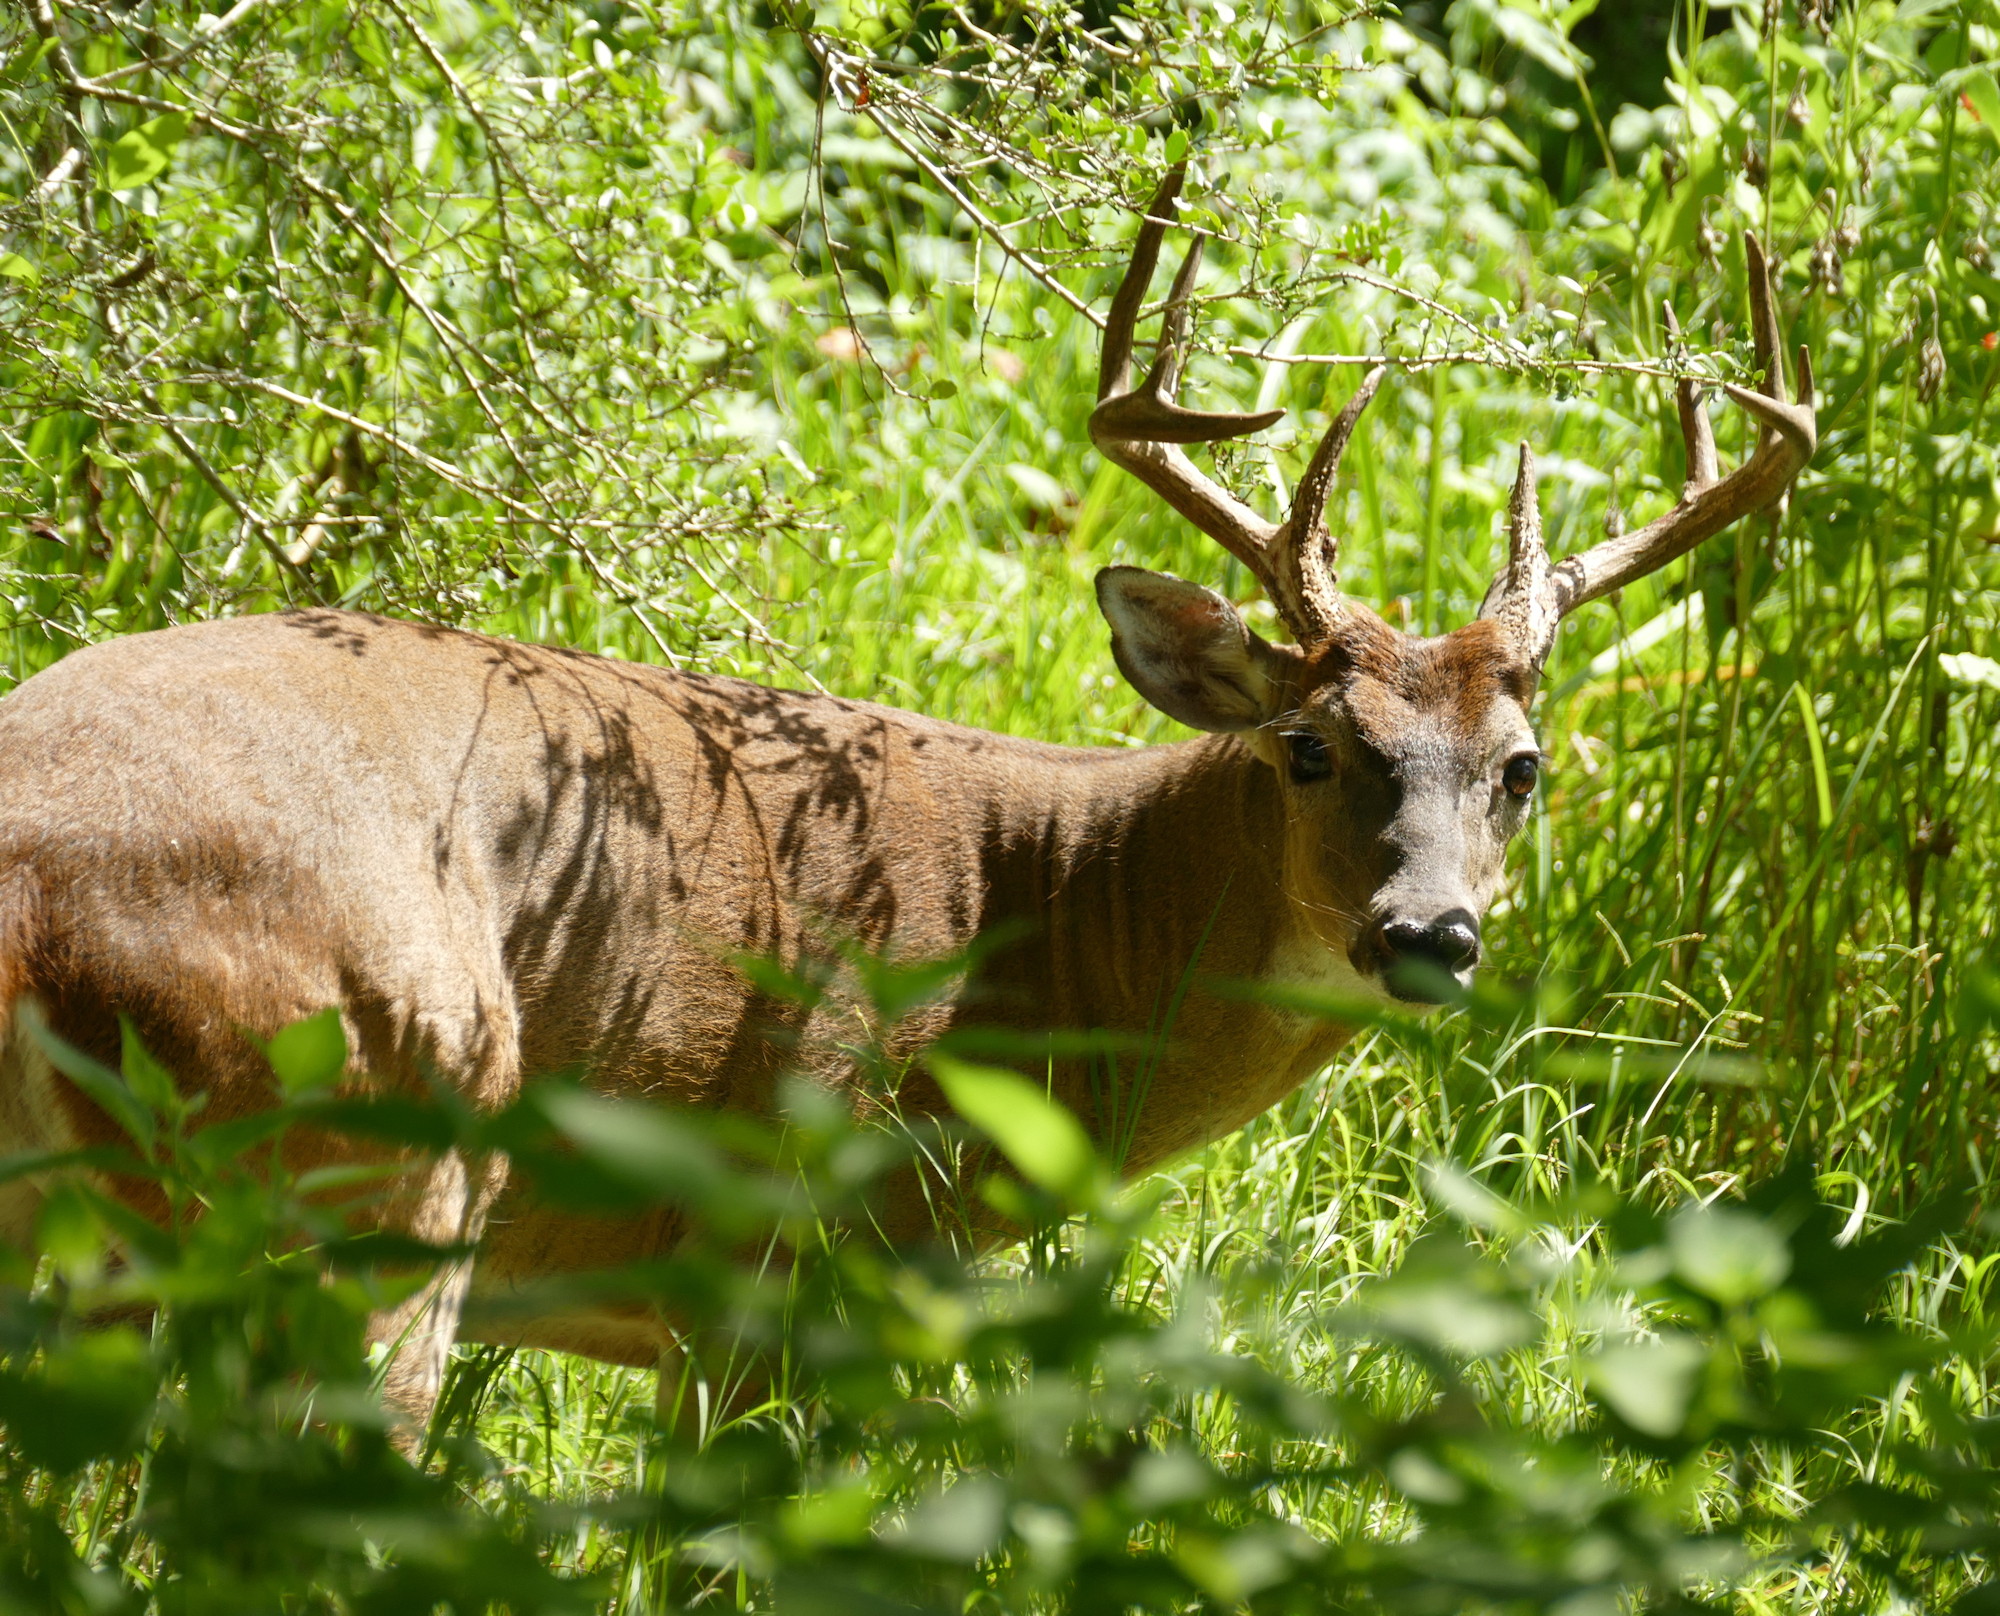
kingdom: Animalia
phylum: Chordata
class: Mammalia
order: Artiodactyla
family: Cervidae
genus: Odocoileus
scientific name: Odocoileus virginianus
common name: White-tailed deer
